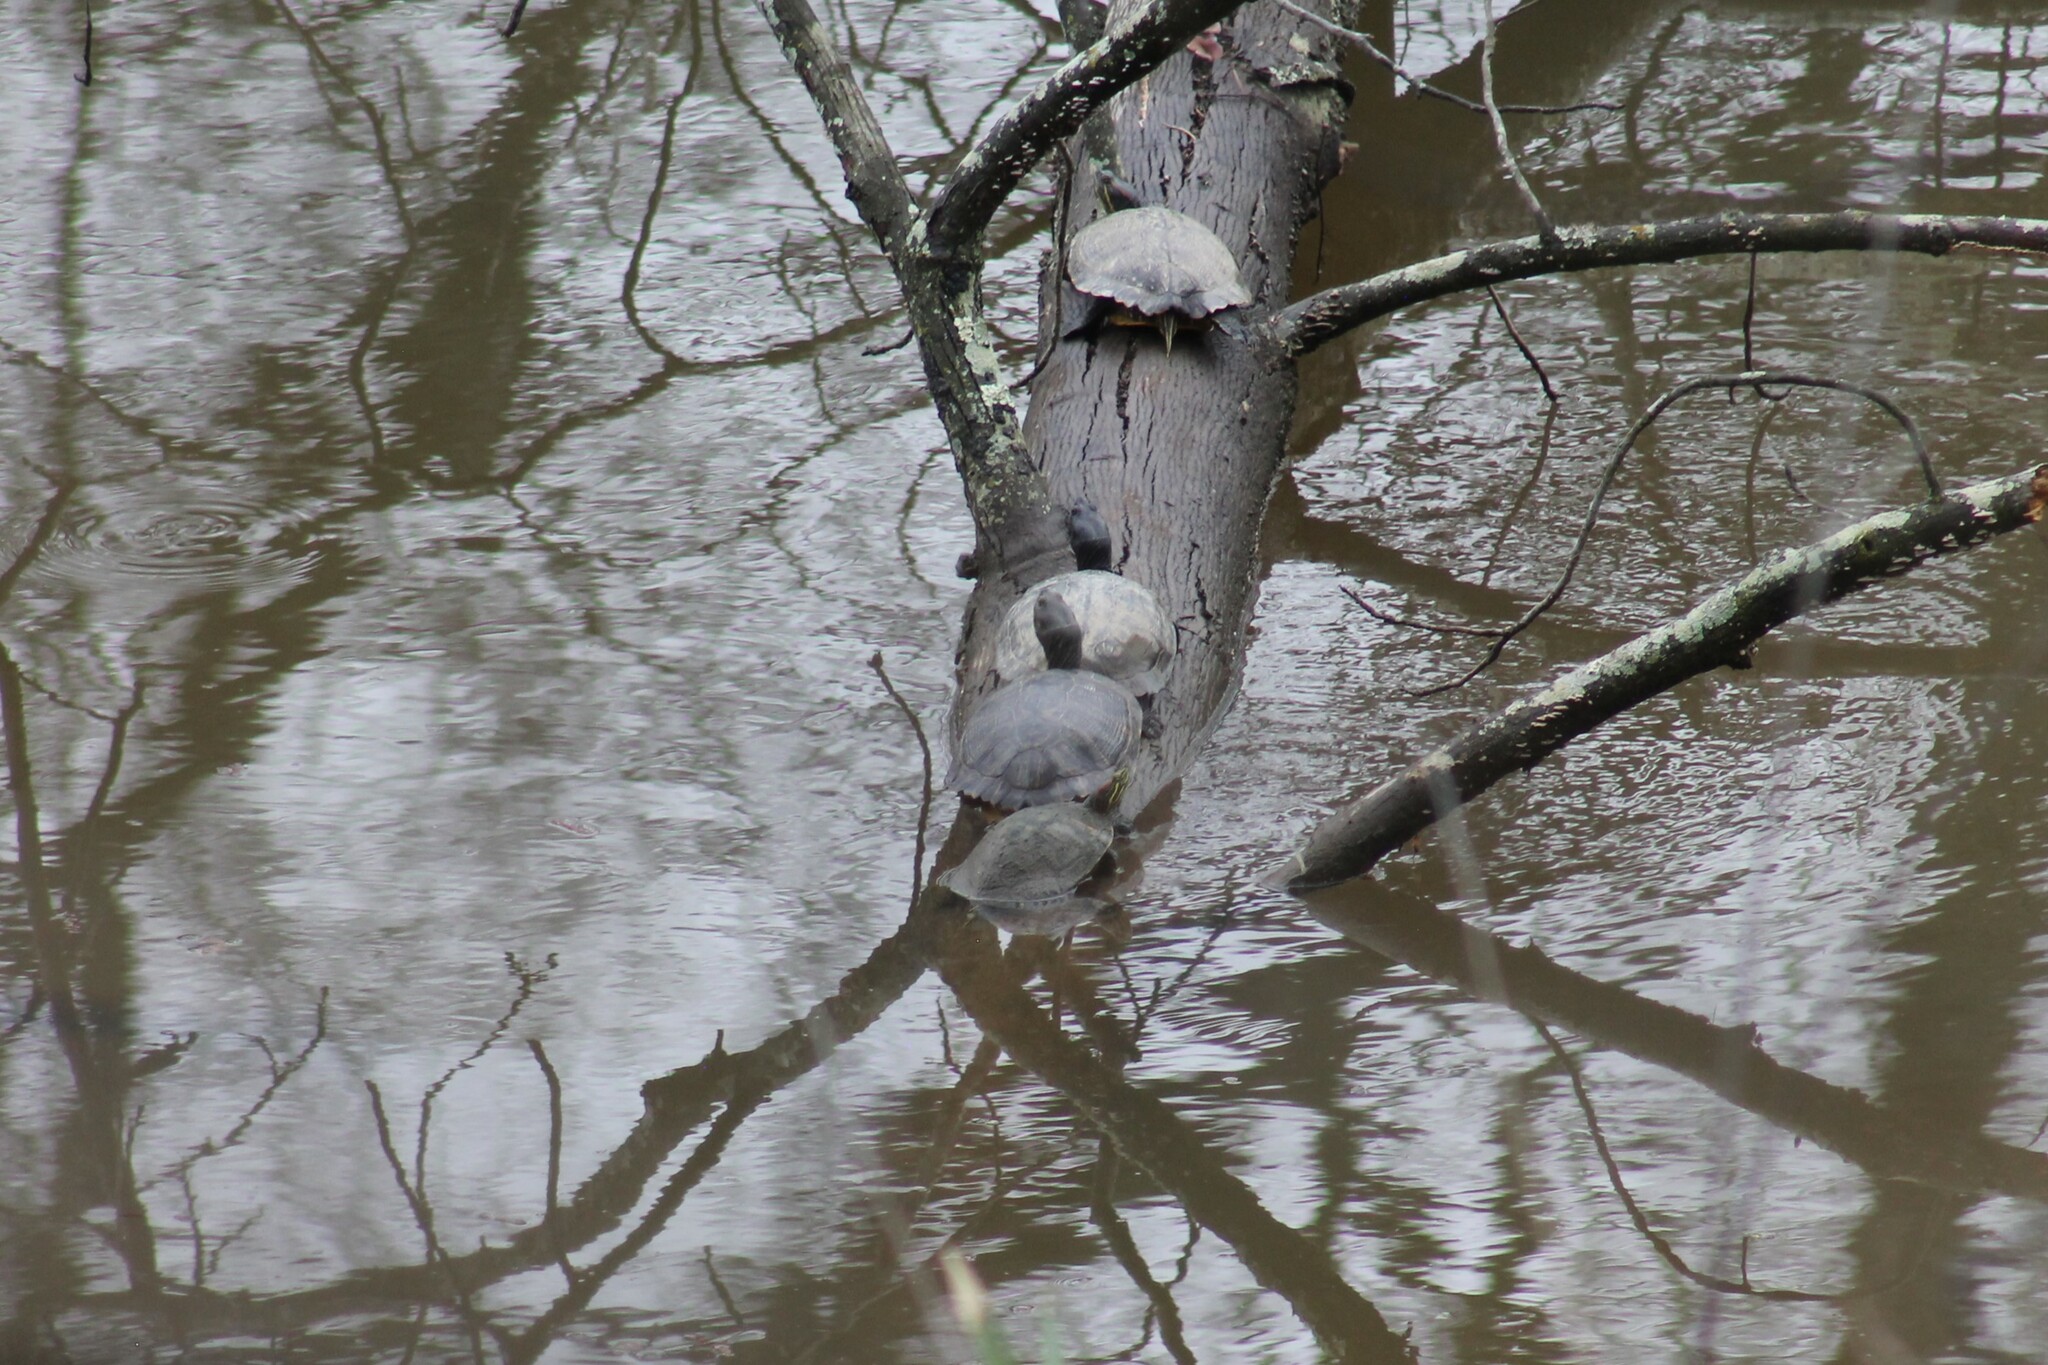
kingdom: Animalia
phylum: Chordata
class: Testudines
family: Emydidae
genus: Trachemys
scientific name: Trachemys scripta
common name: Slider
